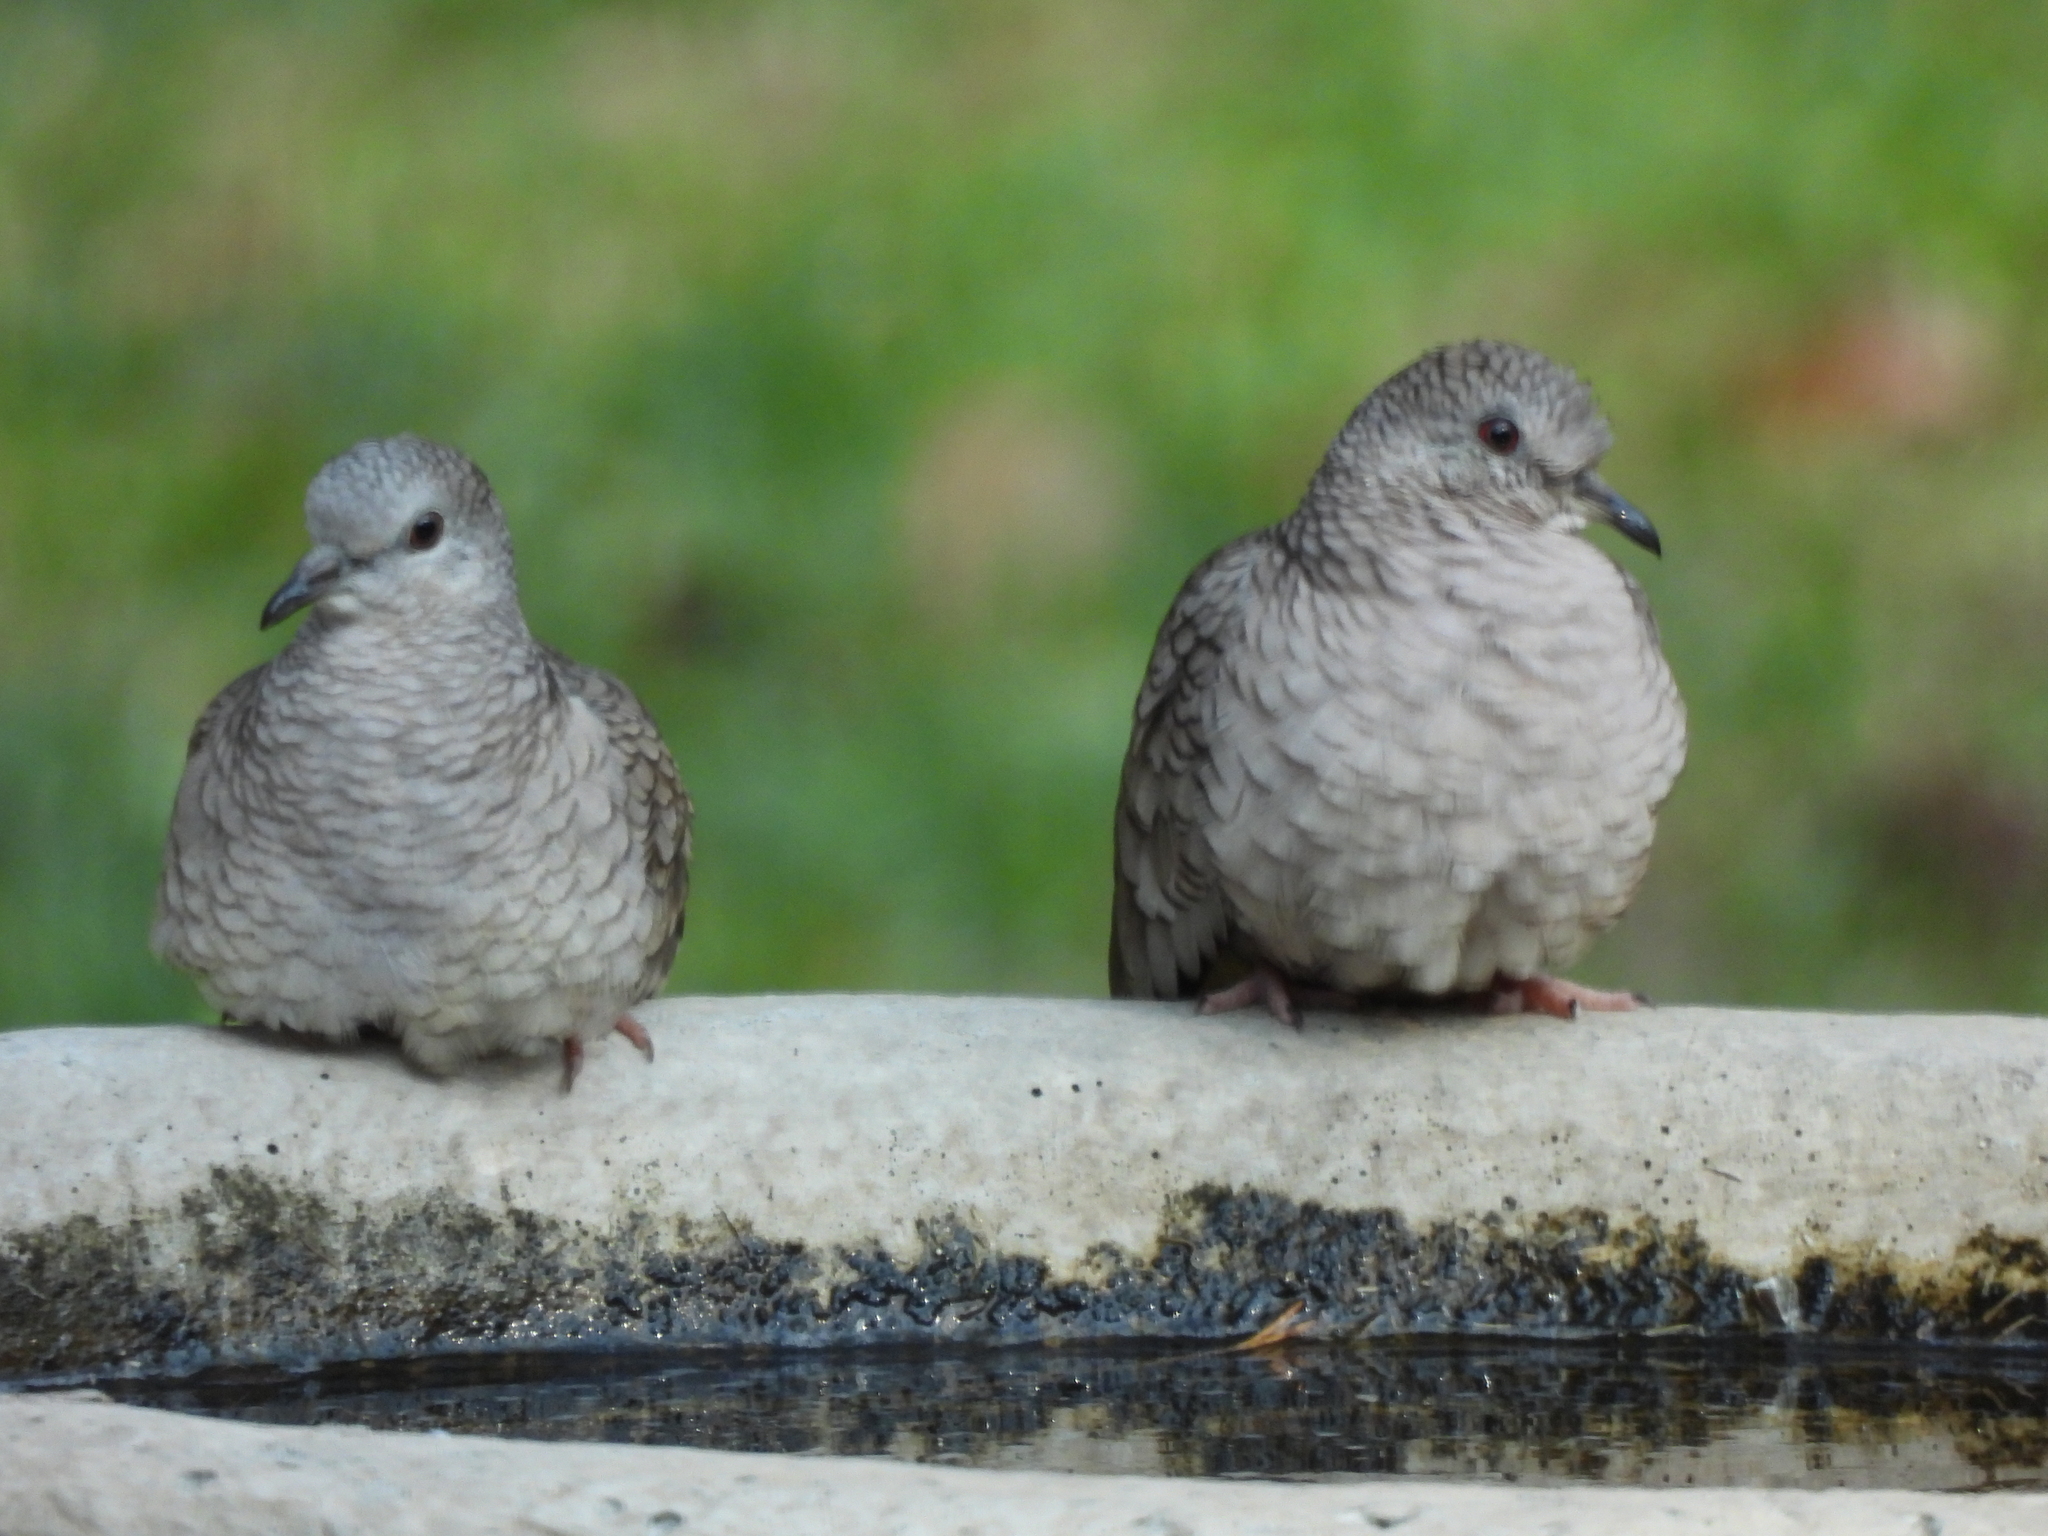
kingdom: Animalia
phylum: Chordata
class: Aves
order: Columbiformes
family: Columbidae
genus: Columbina
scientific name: Columbina inca
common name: Inca dove
